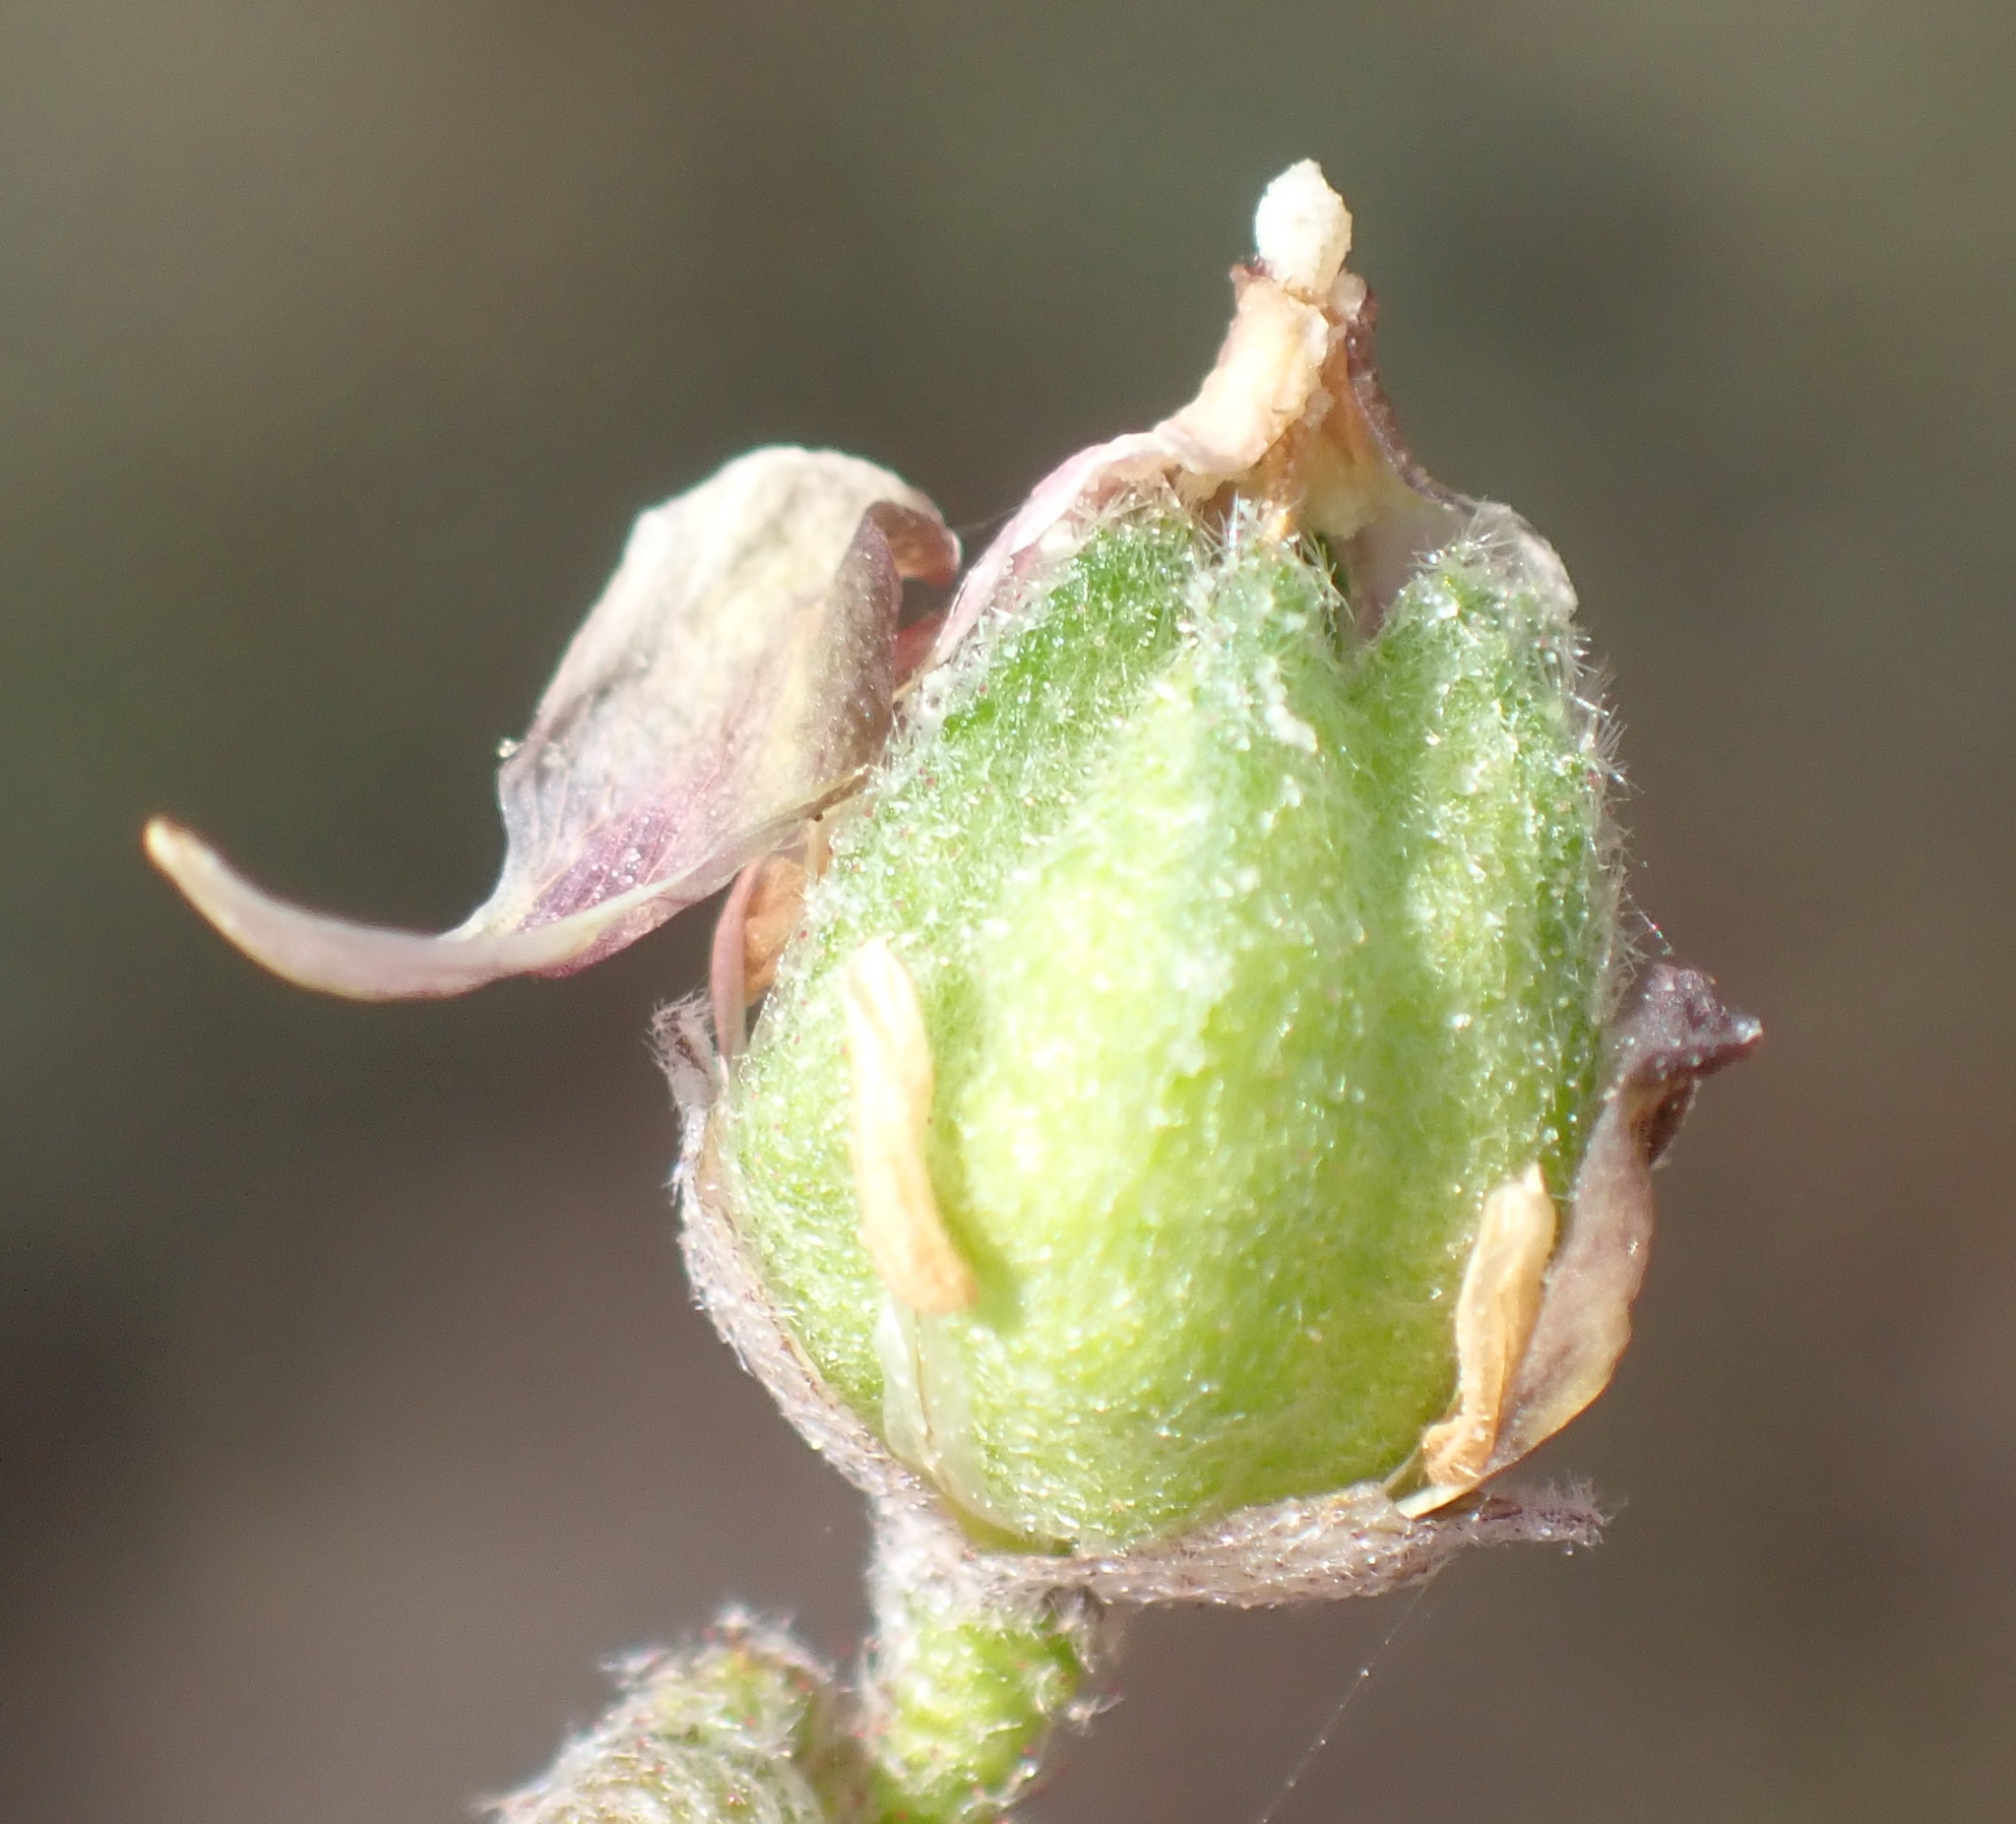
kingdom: Plantae
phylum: Tracheophyta
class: Magnoliopsida
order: Malvales
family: Malvaceae
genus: Hermannia
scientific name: Hermannia pulverata
